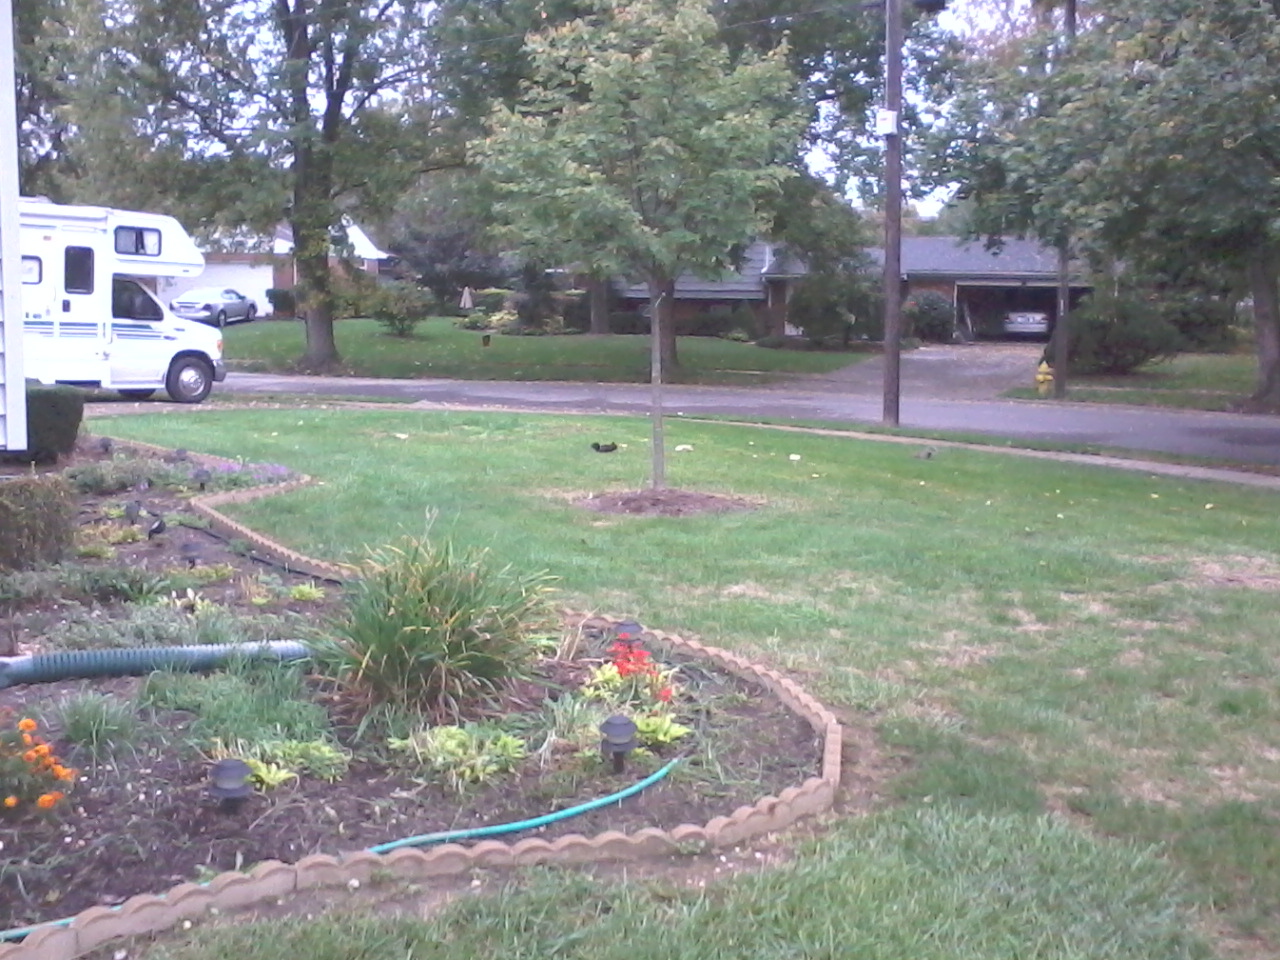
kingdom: Animalia
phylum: Chordata
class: Mammalia
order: Rodentia
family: Sciuridae
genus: Sciurus
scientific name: Sciurus carolinensis
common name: Eastern gray squirrel
